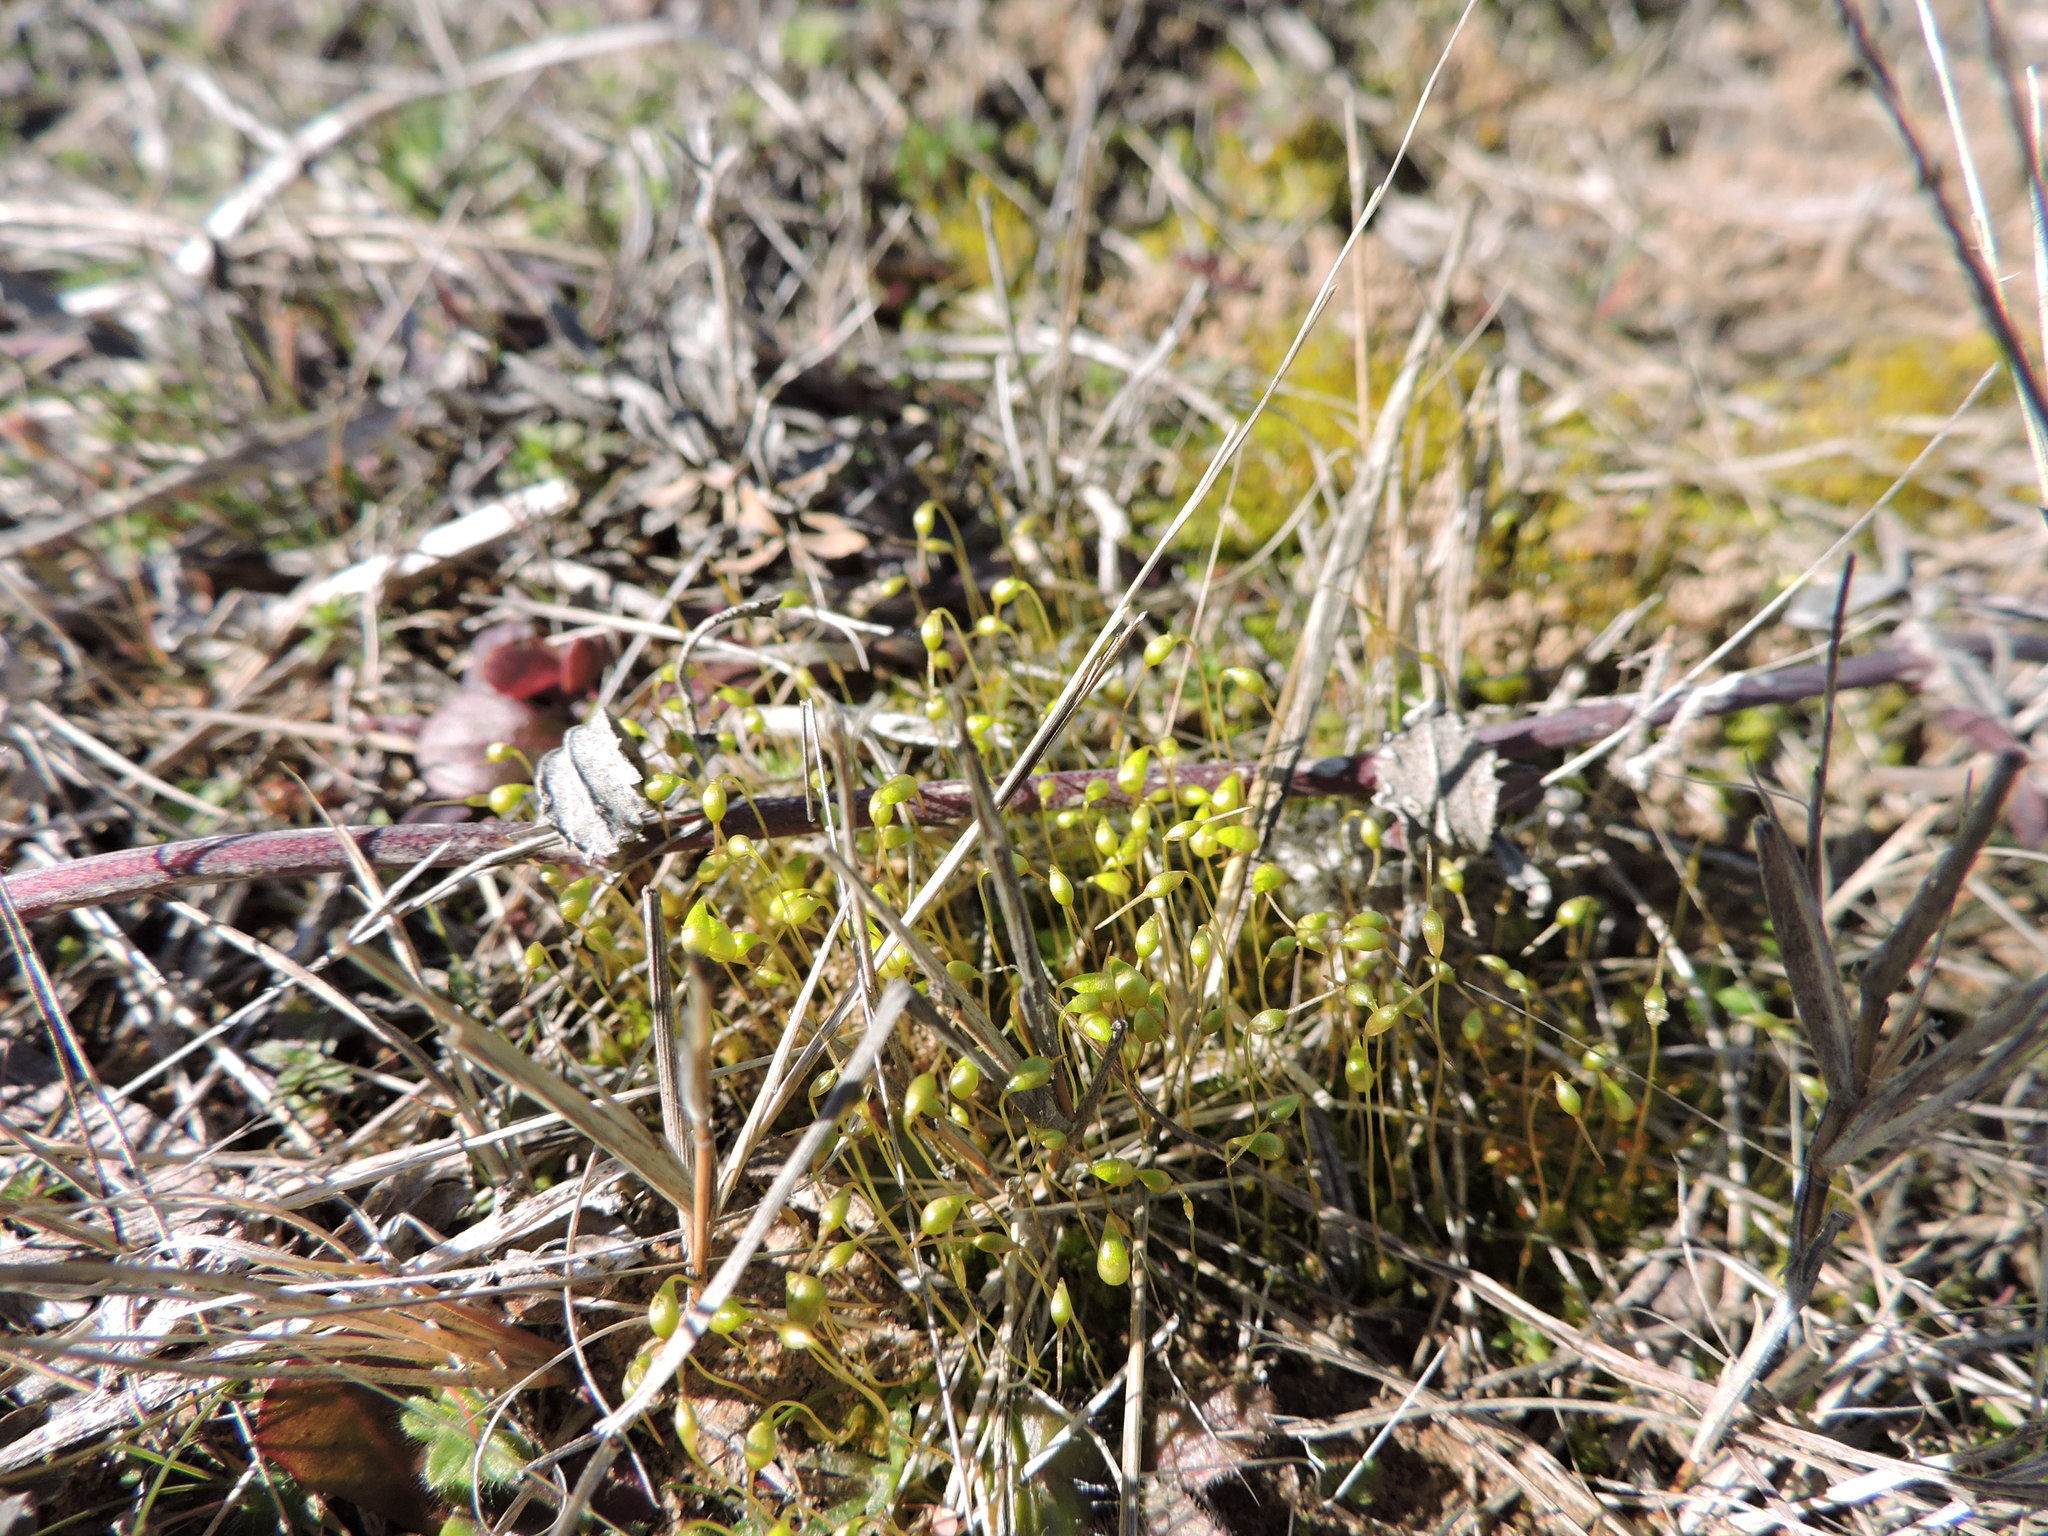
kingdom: Plantae
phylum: Bryophyta
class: Bryopsida
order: Funariales
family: Funariaceae
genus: Funaria
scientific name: Funaria hygrometrica
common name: Common cord moss
